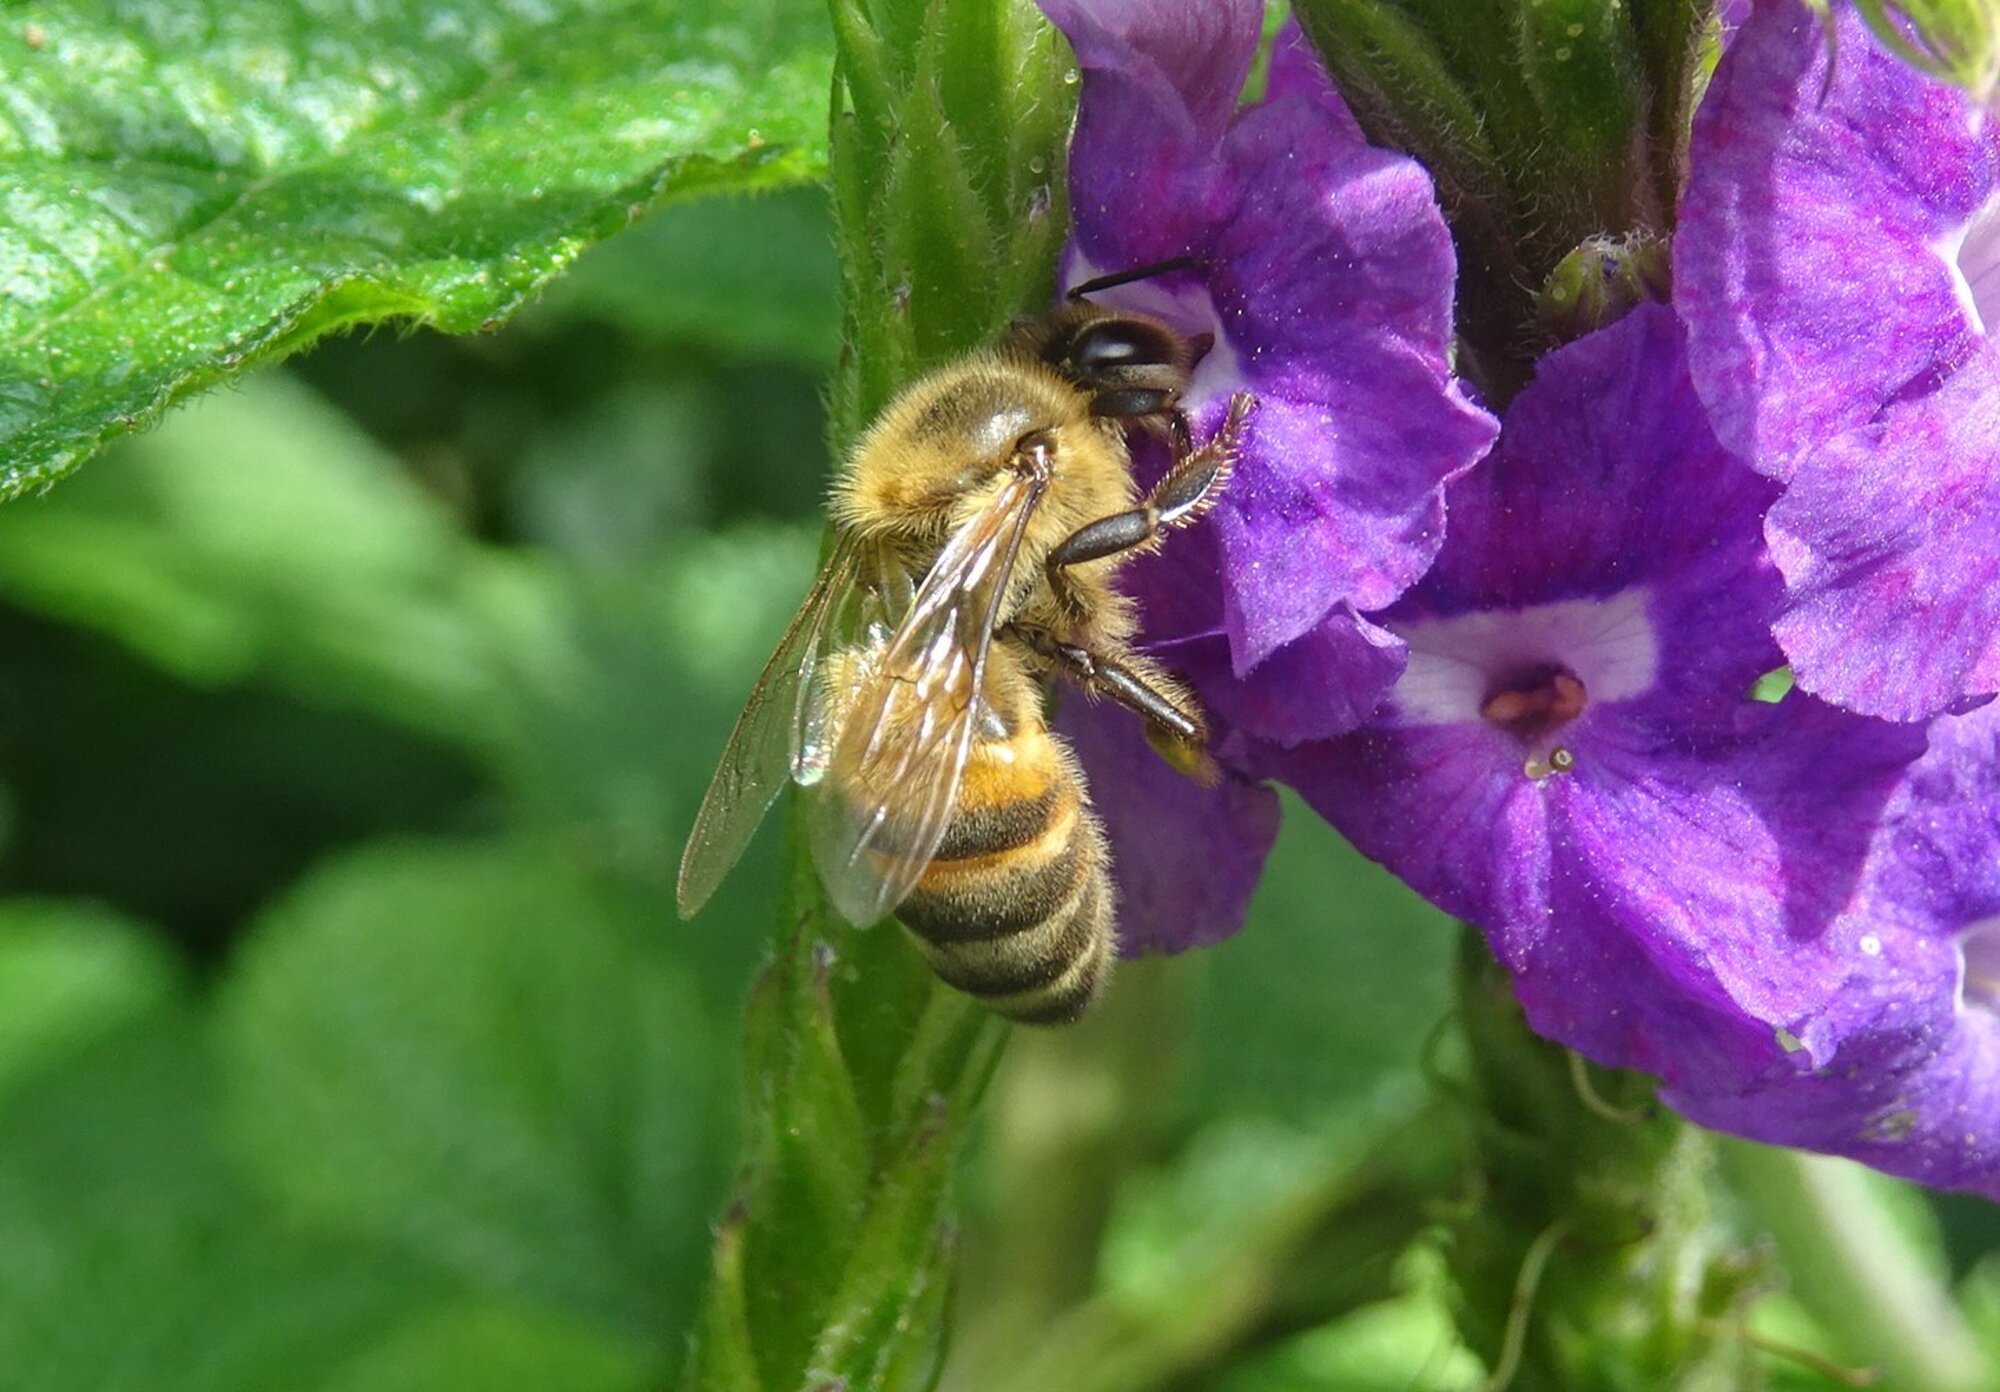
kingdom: Animalia
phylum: Arthropoda
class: Insecta
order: Hymenoptera
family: Apidae
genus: Apis
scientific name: Apis mellifera
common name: Honey bee
